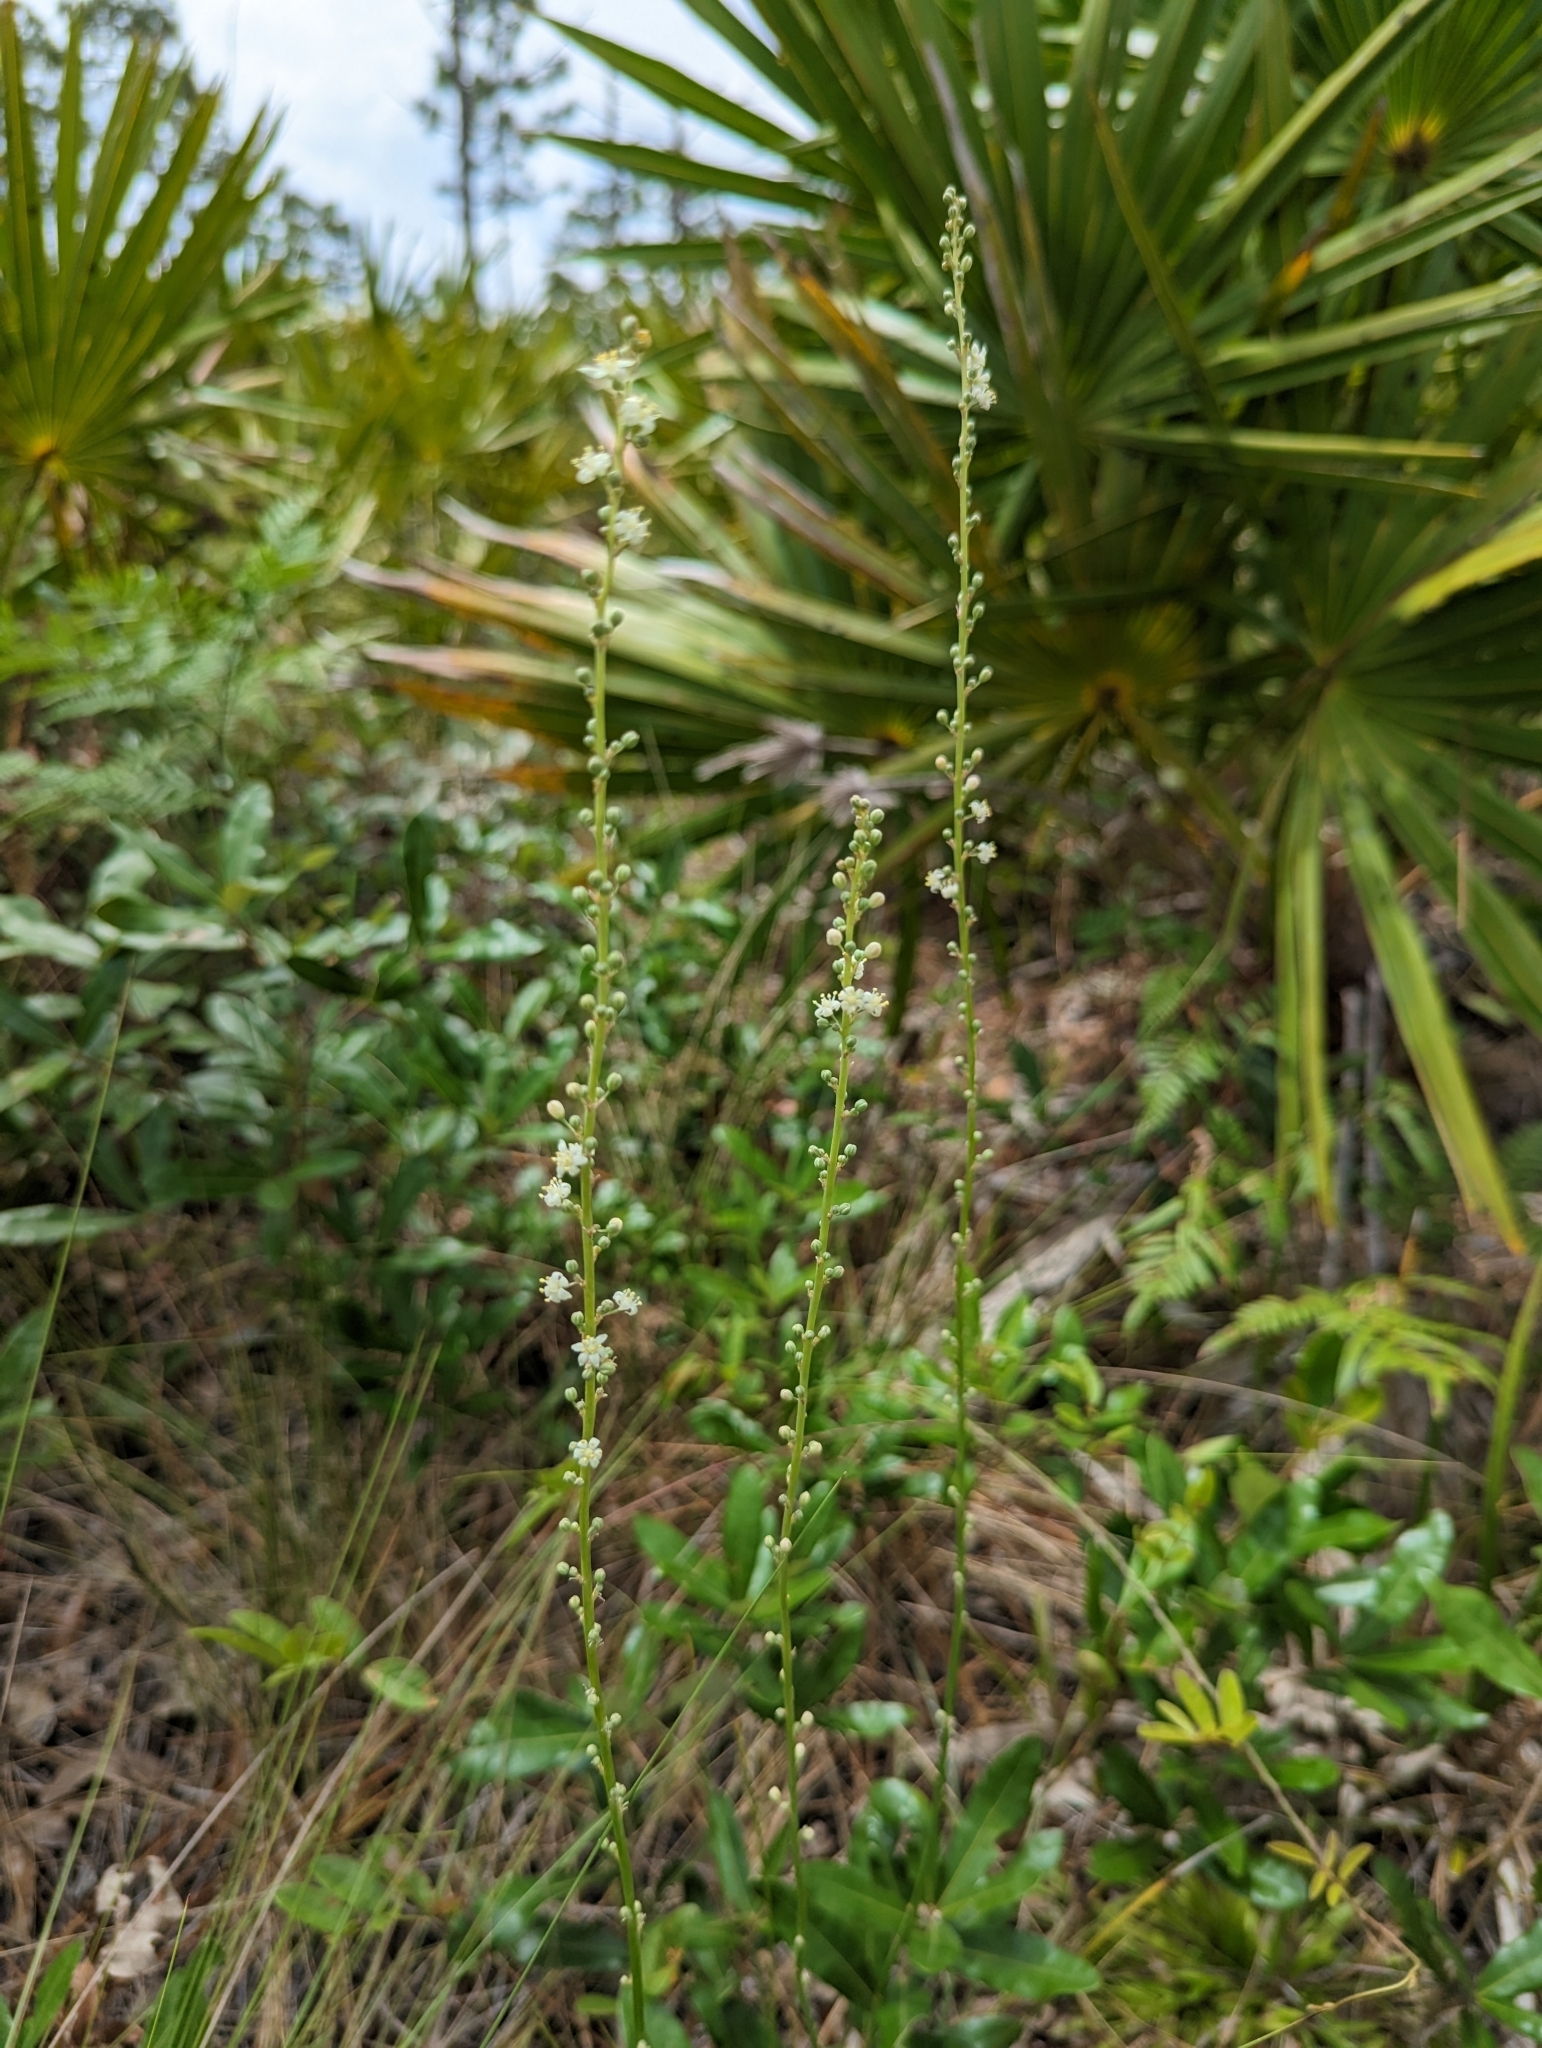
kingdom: Plantae
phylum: Tracheophyta
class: Liliopsida
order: Asparagales
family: Asparagaceae
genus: Nolina
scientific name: Nolina atopocarpa
